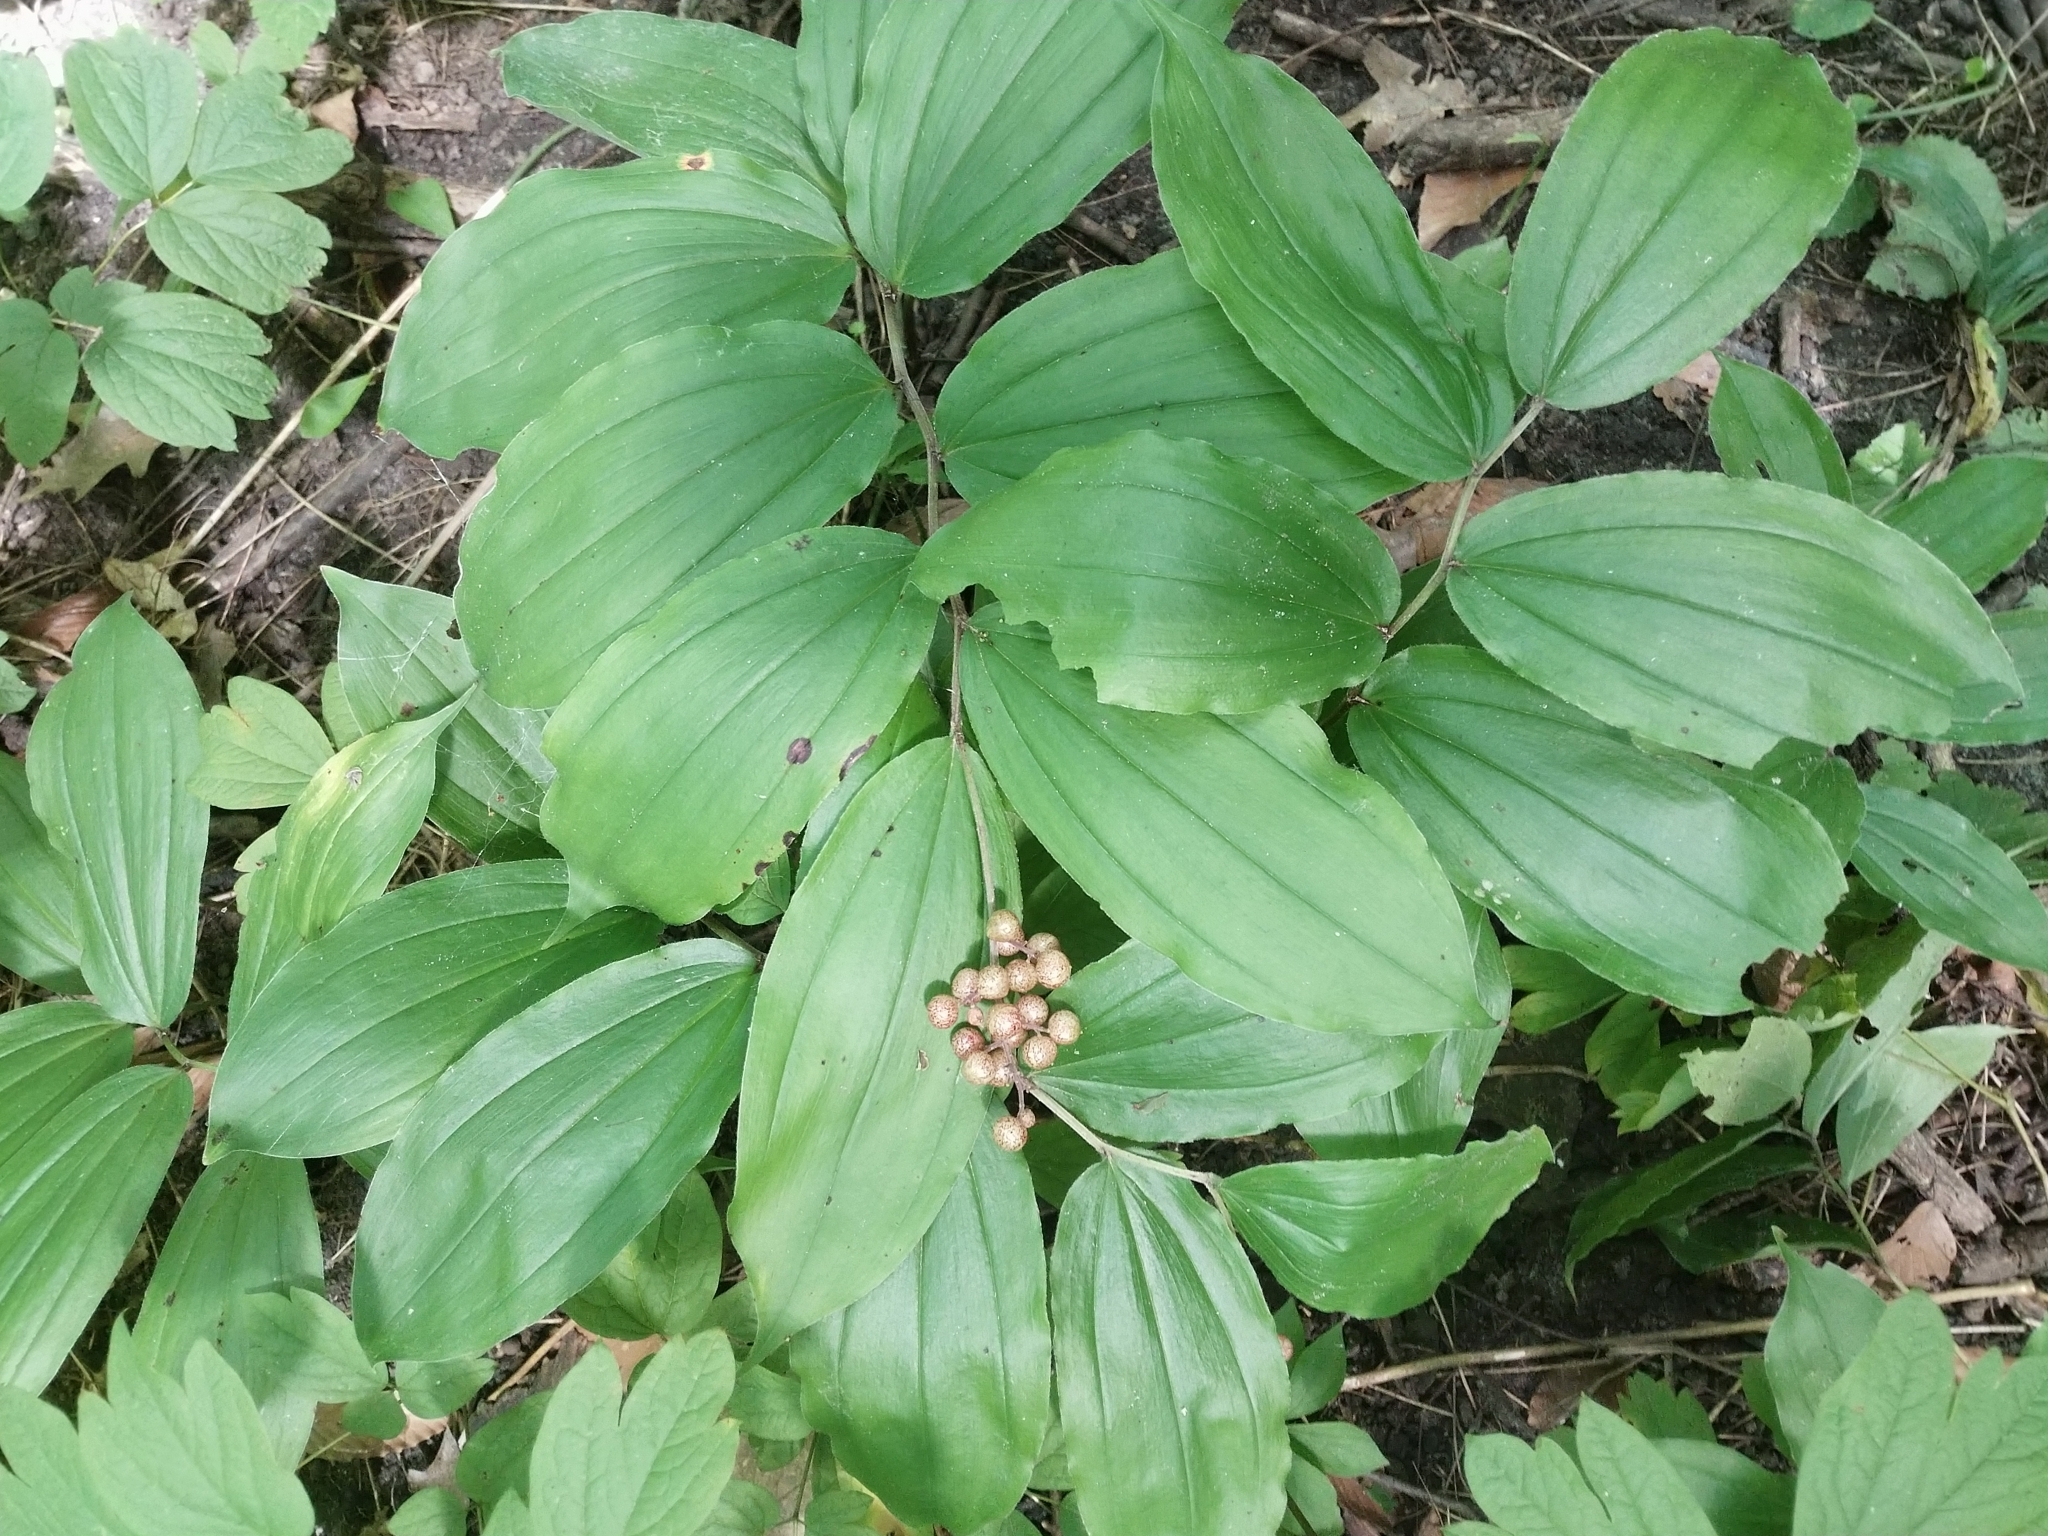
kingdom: Plantae
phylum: Tracheophyta
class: Liliopsida
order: Asparagales
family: Asparagaceae
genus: Maianthemum
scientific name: Maianthemum racemosum
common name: False spikenard
